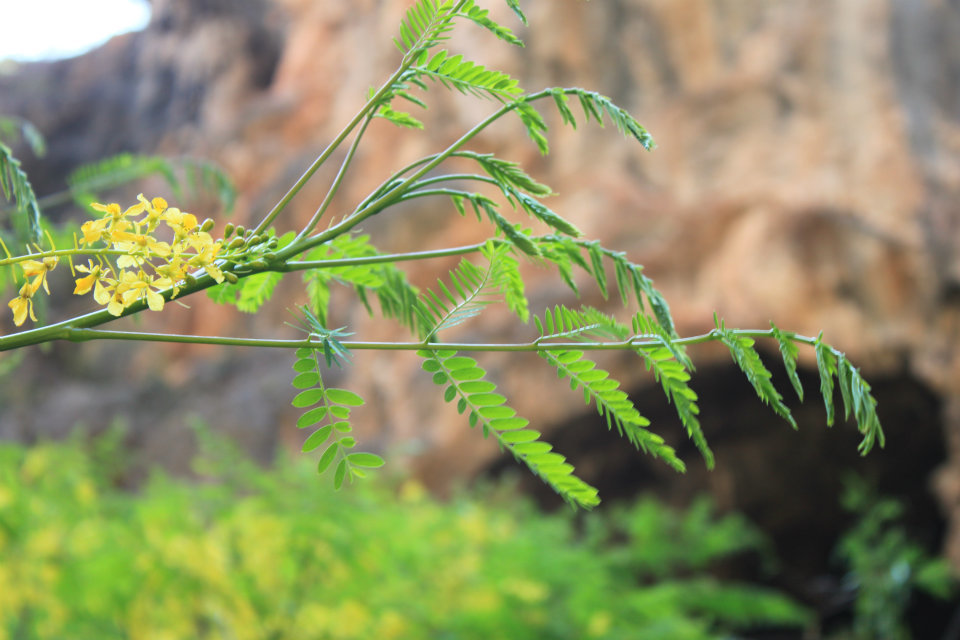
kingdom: Plantae
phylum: Tracheophyta
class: Magnoliopsida
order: Fabales
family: Fabaceae
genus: Parkinsonia
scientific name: Parkinsonia praecox
